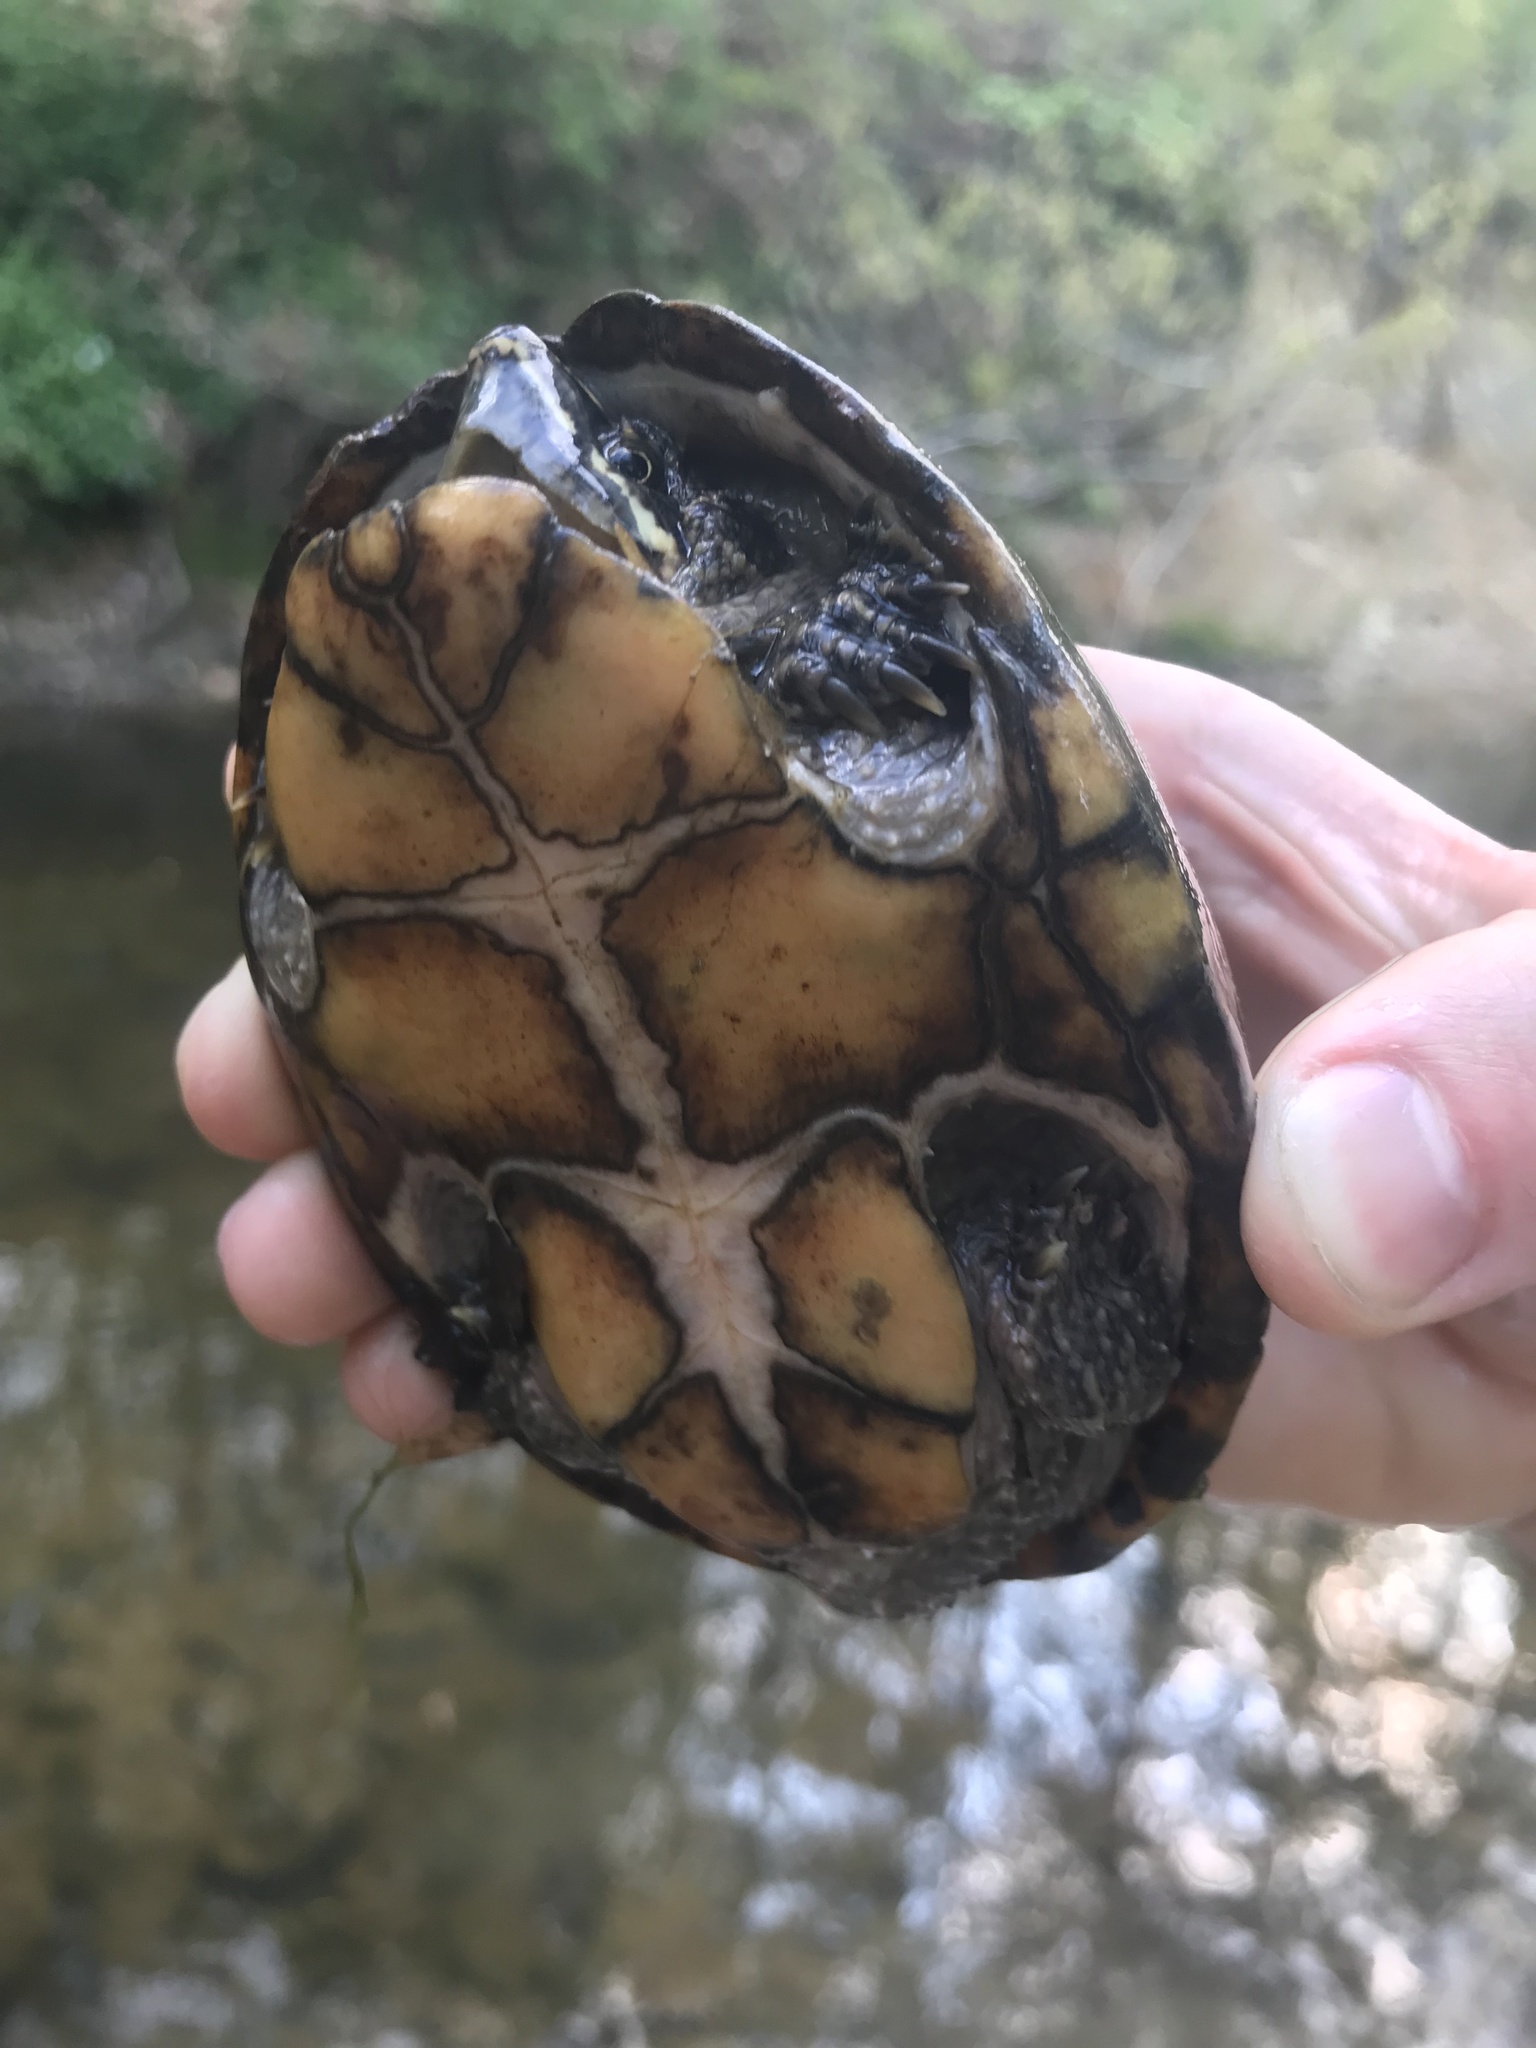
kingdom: Animalia
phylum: Chordata
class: Testudines
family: Kinosternidae
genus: Sternotherus
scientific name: Sternotherus odoratus
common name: Common musk turtle
